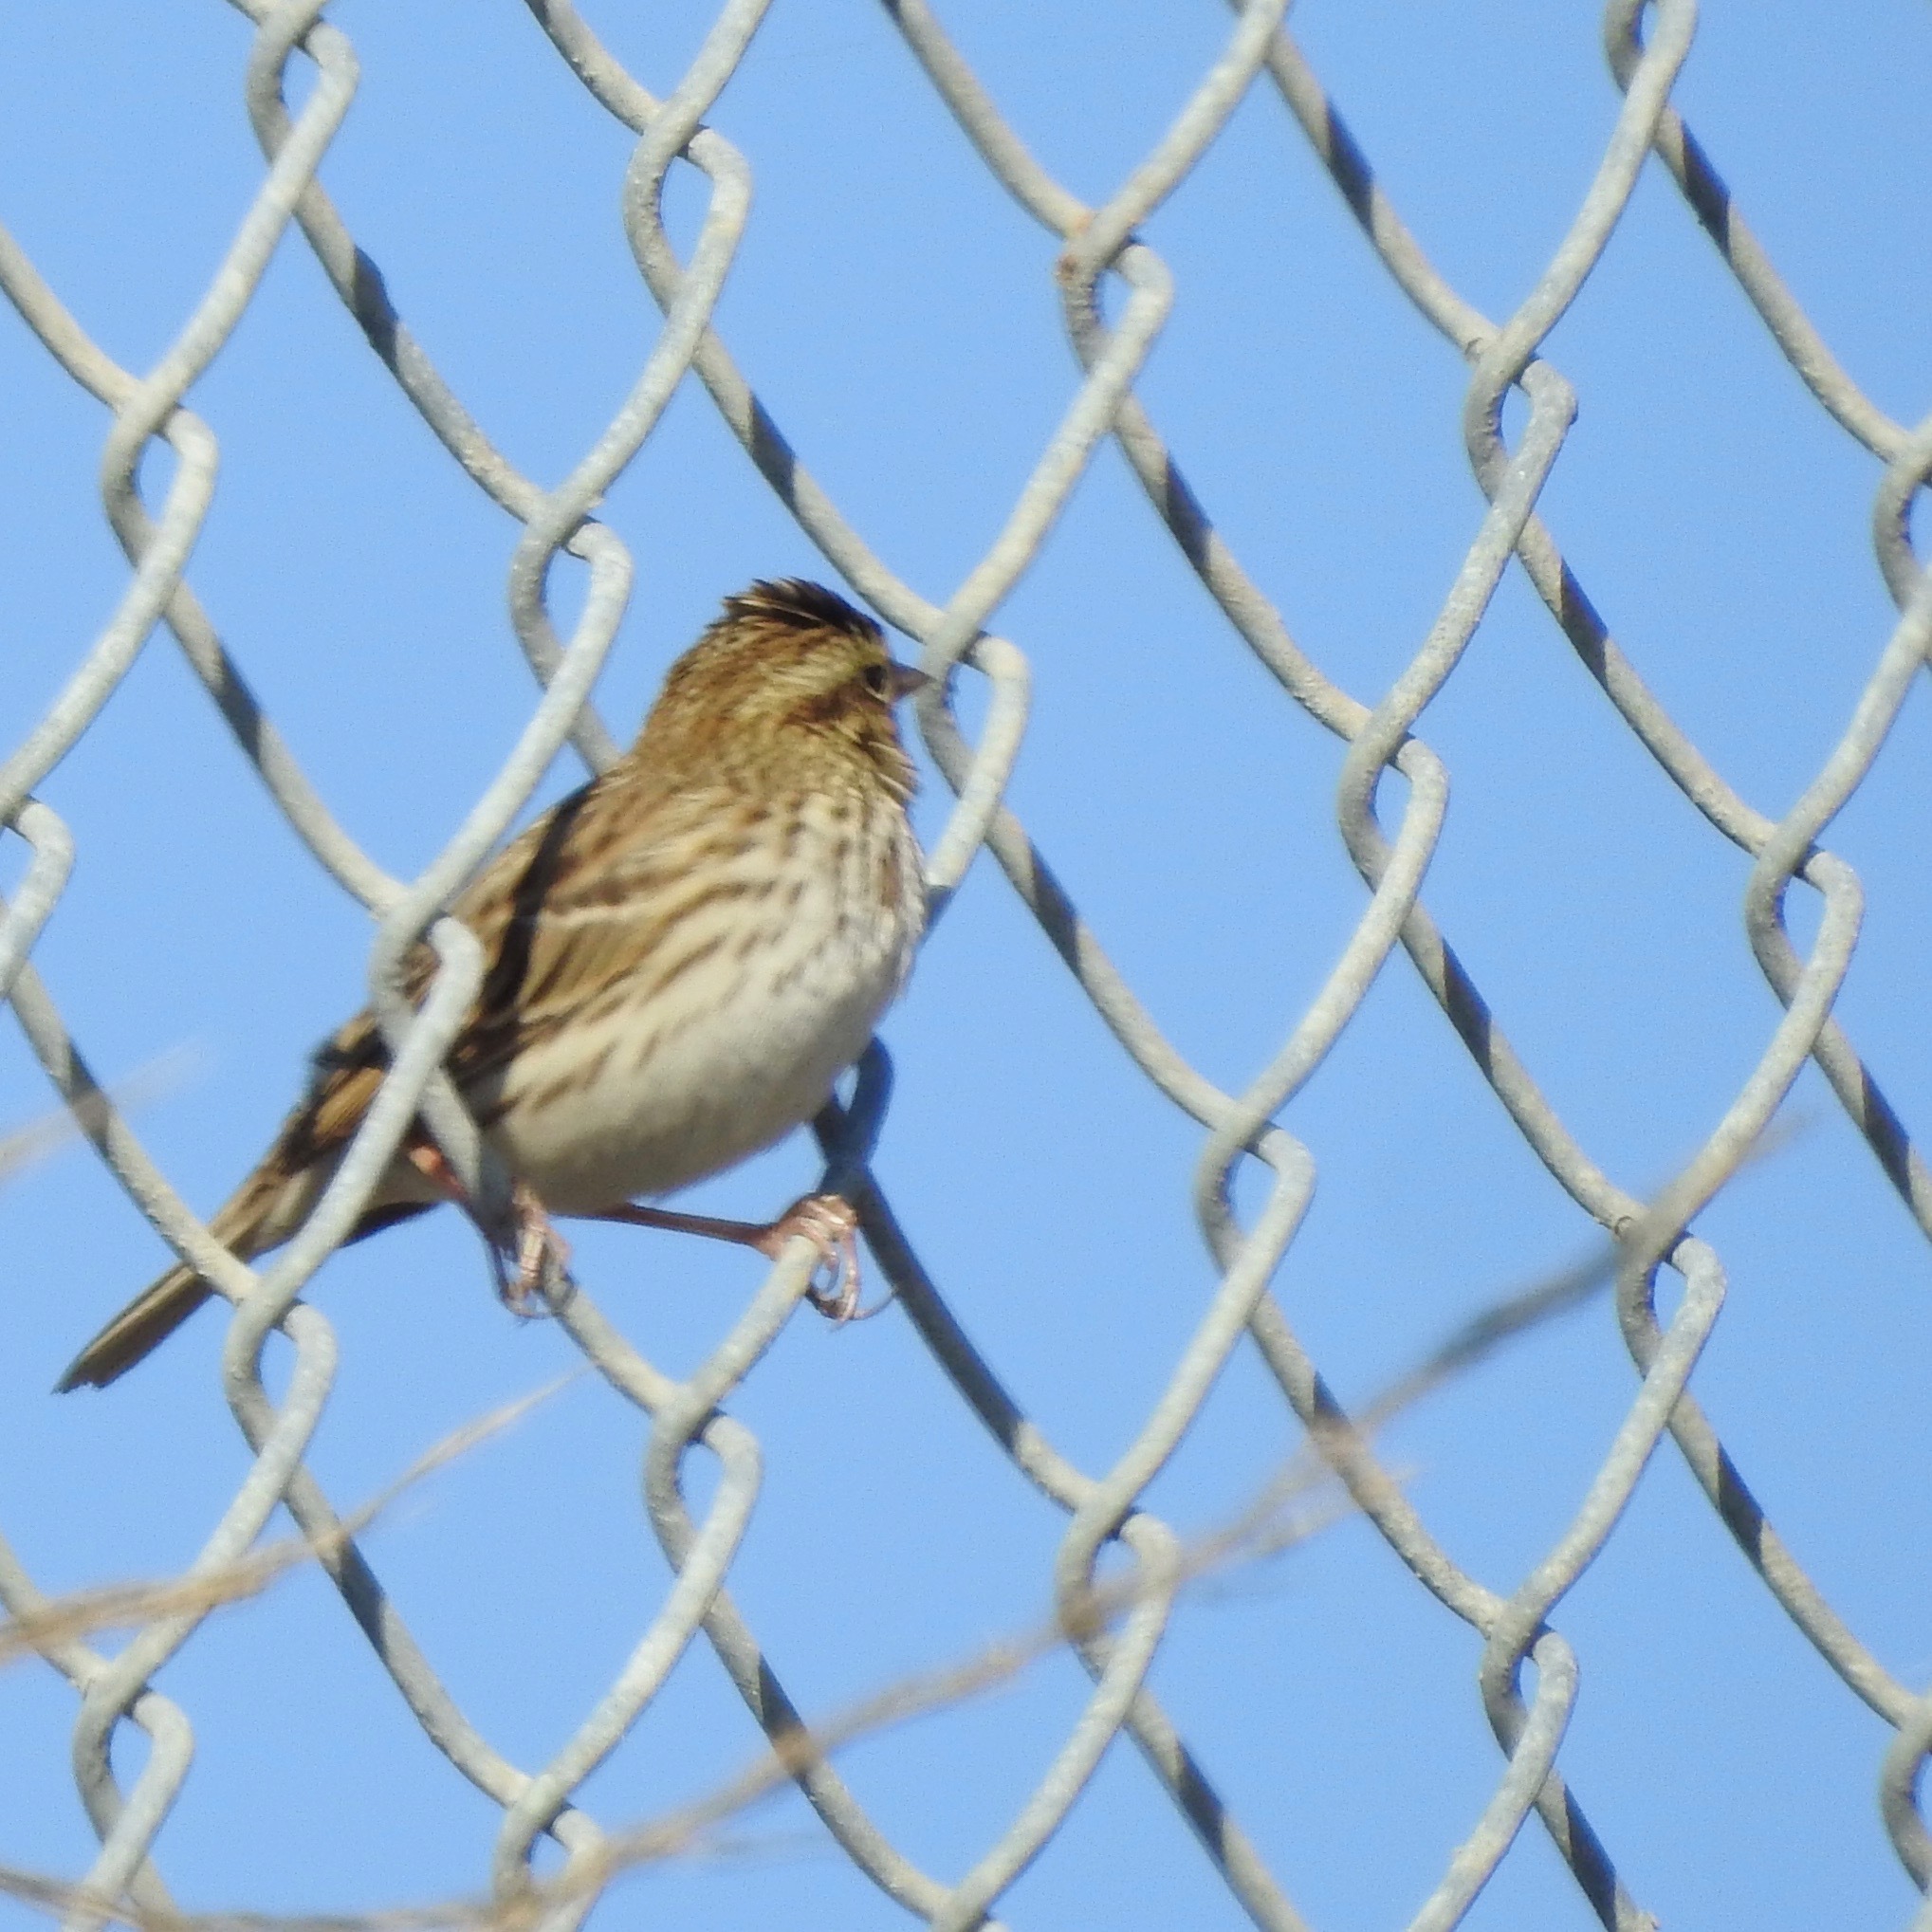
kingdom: Animalia
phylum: Chordata
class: Aves
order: Passeriformes
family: Passerellidae
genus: Passerculus
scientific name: Passerculus sandwichensis
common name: Savannah sparrow
